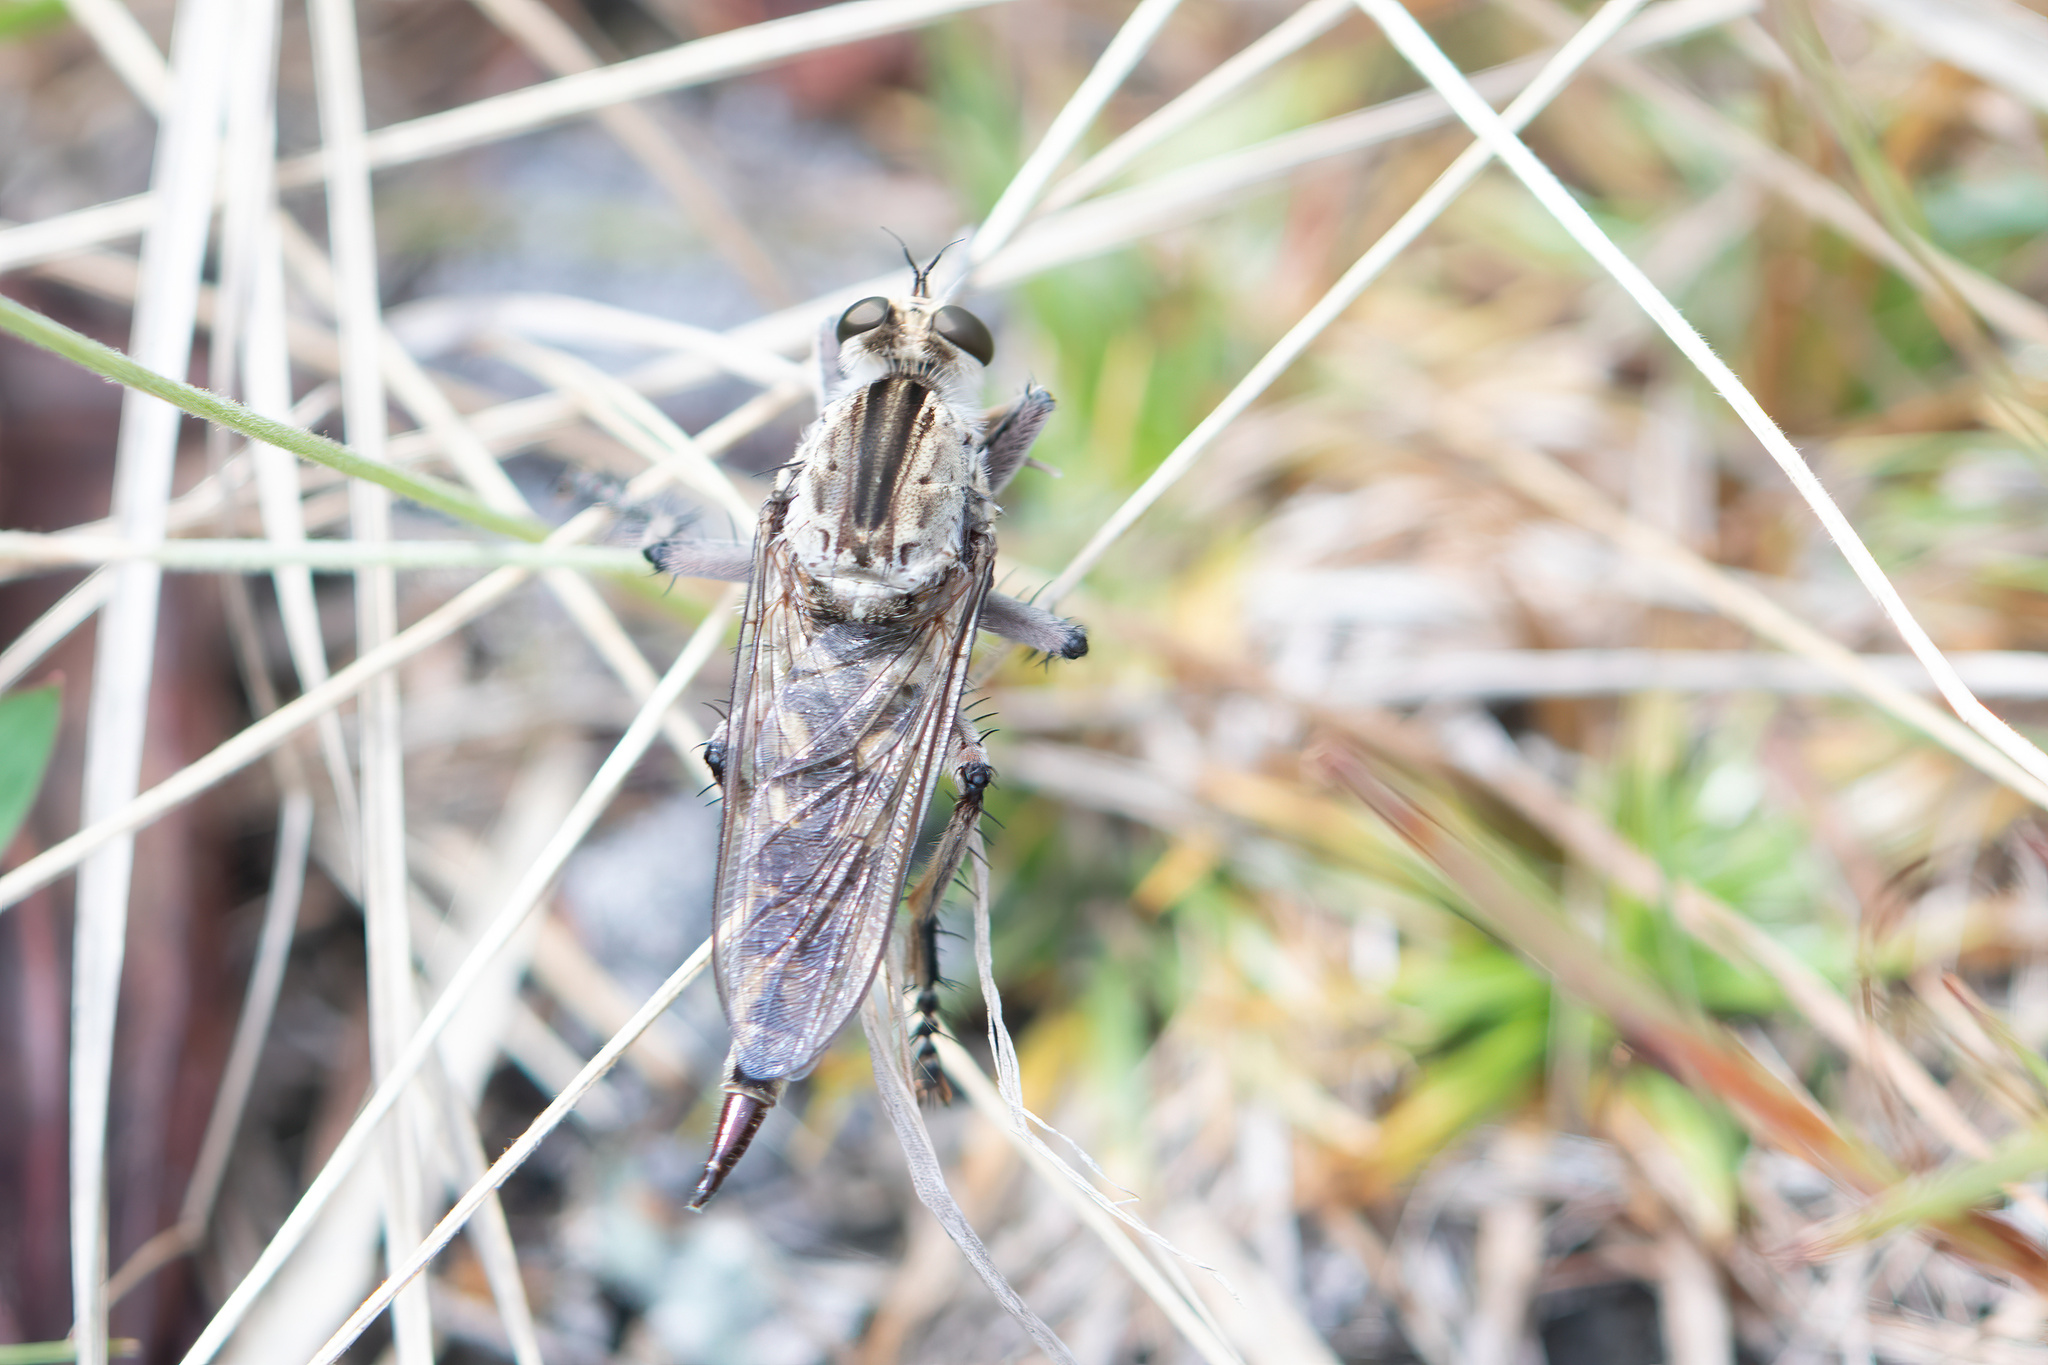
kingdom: Animalia
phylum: Arthropoda
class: Insecta
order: Diptera
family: Asilidae
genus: Triorla
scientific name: Triorla interrupta
